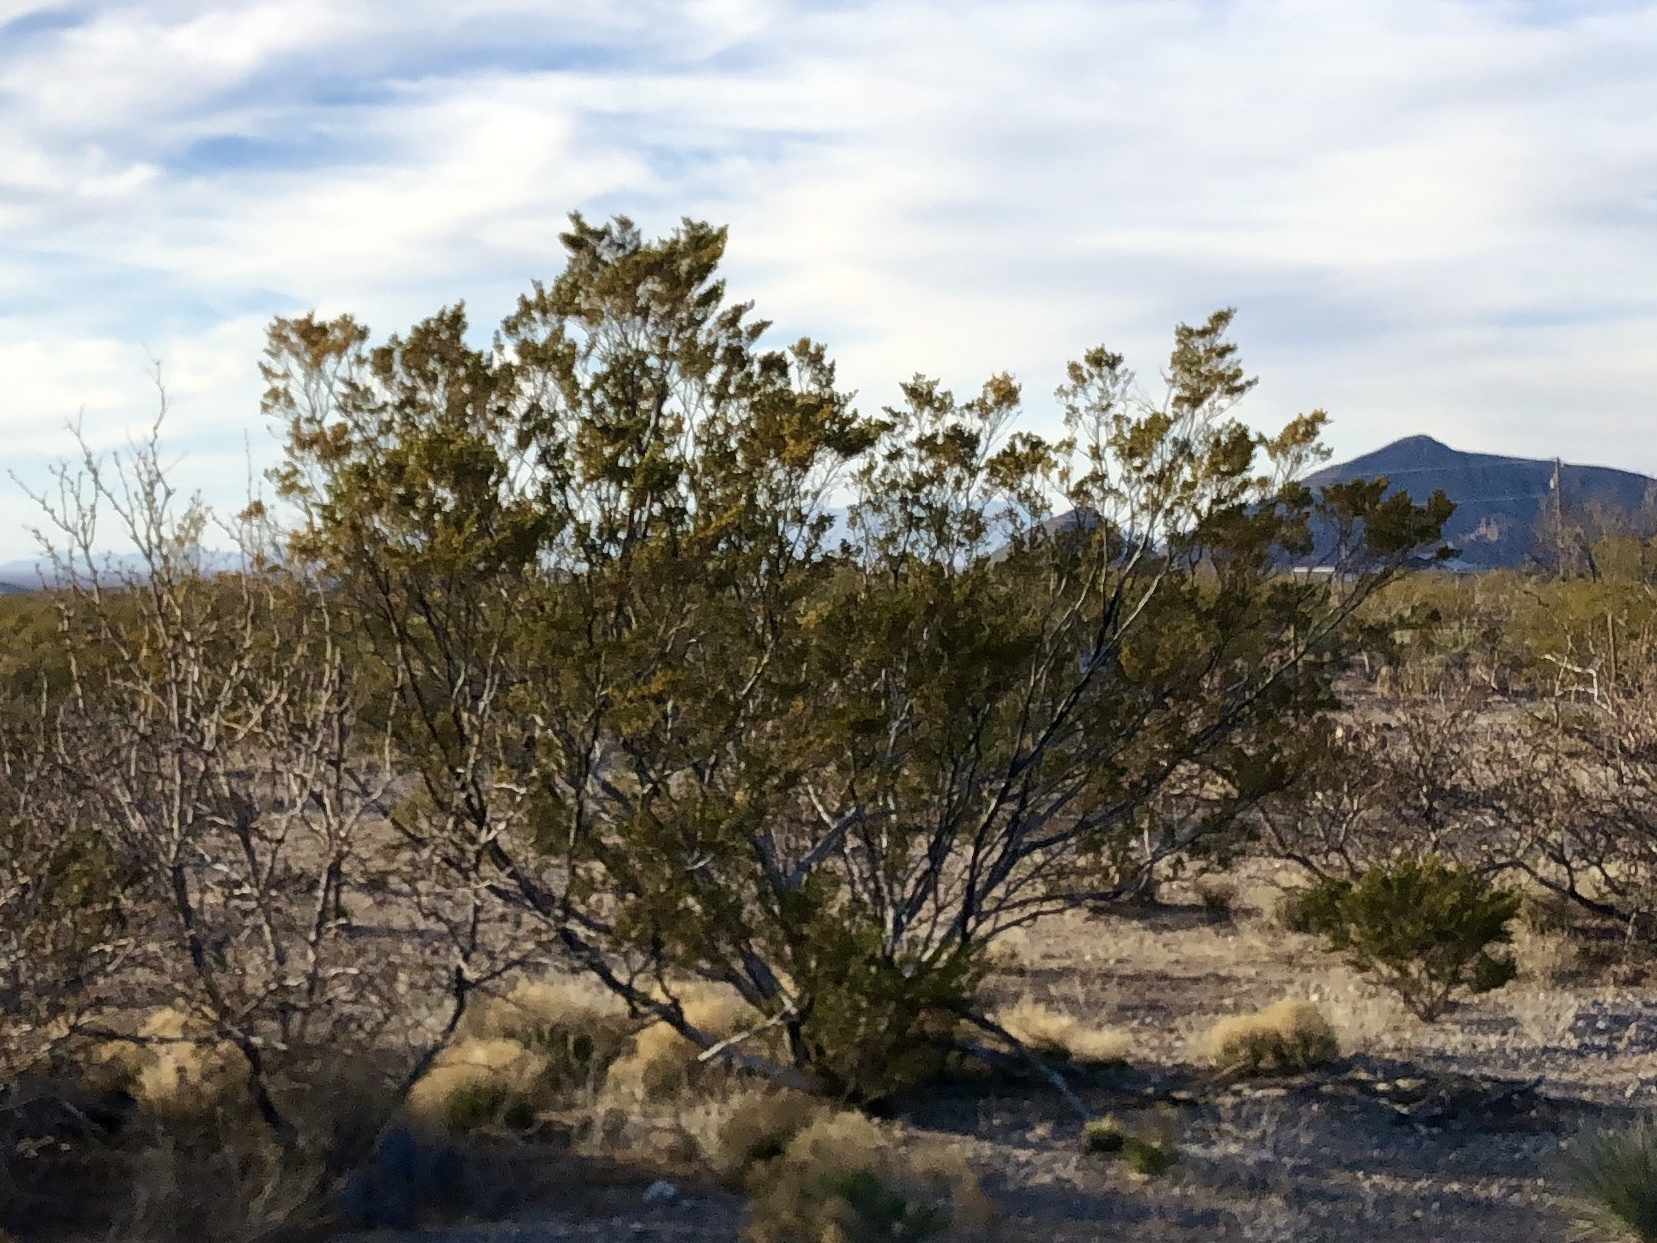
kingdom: Plantae
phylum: Tracheophyta
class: Magnoliopsida
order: Zygophyllales
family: Zygophyllaceae
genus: Larrea
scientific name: Larrea tridentata
